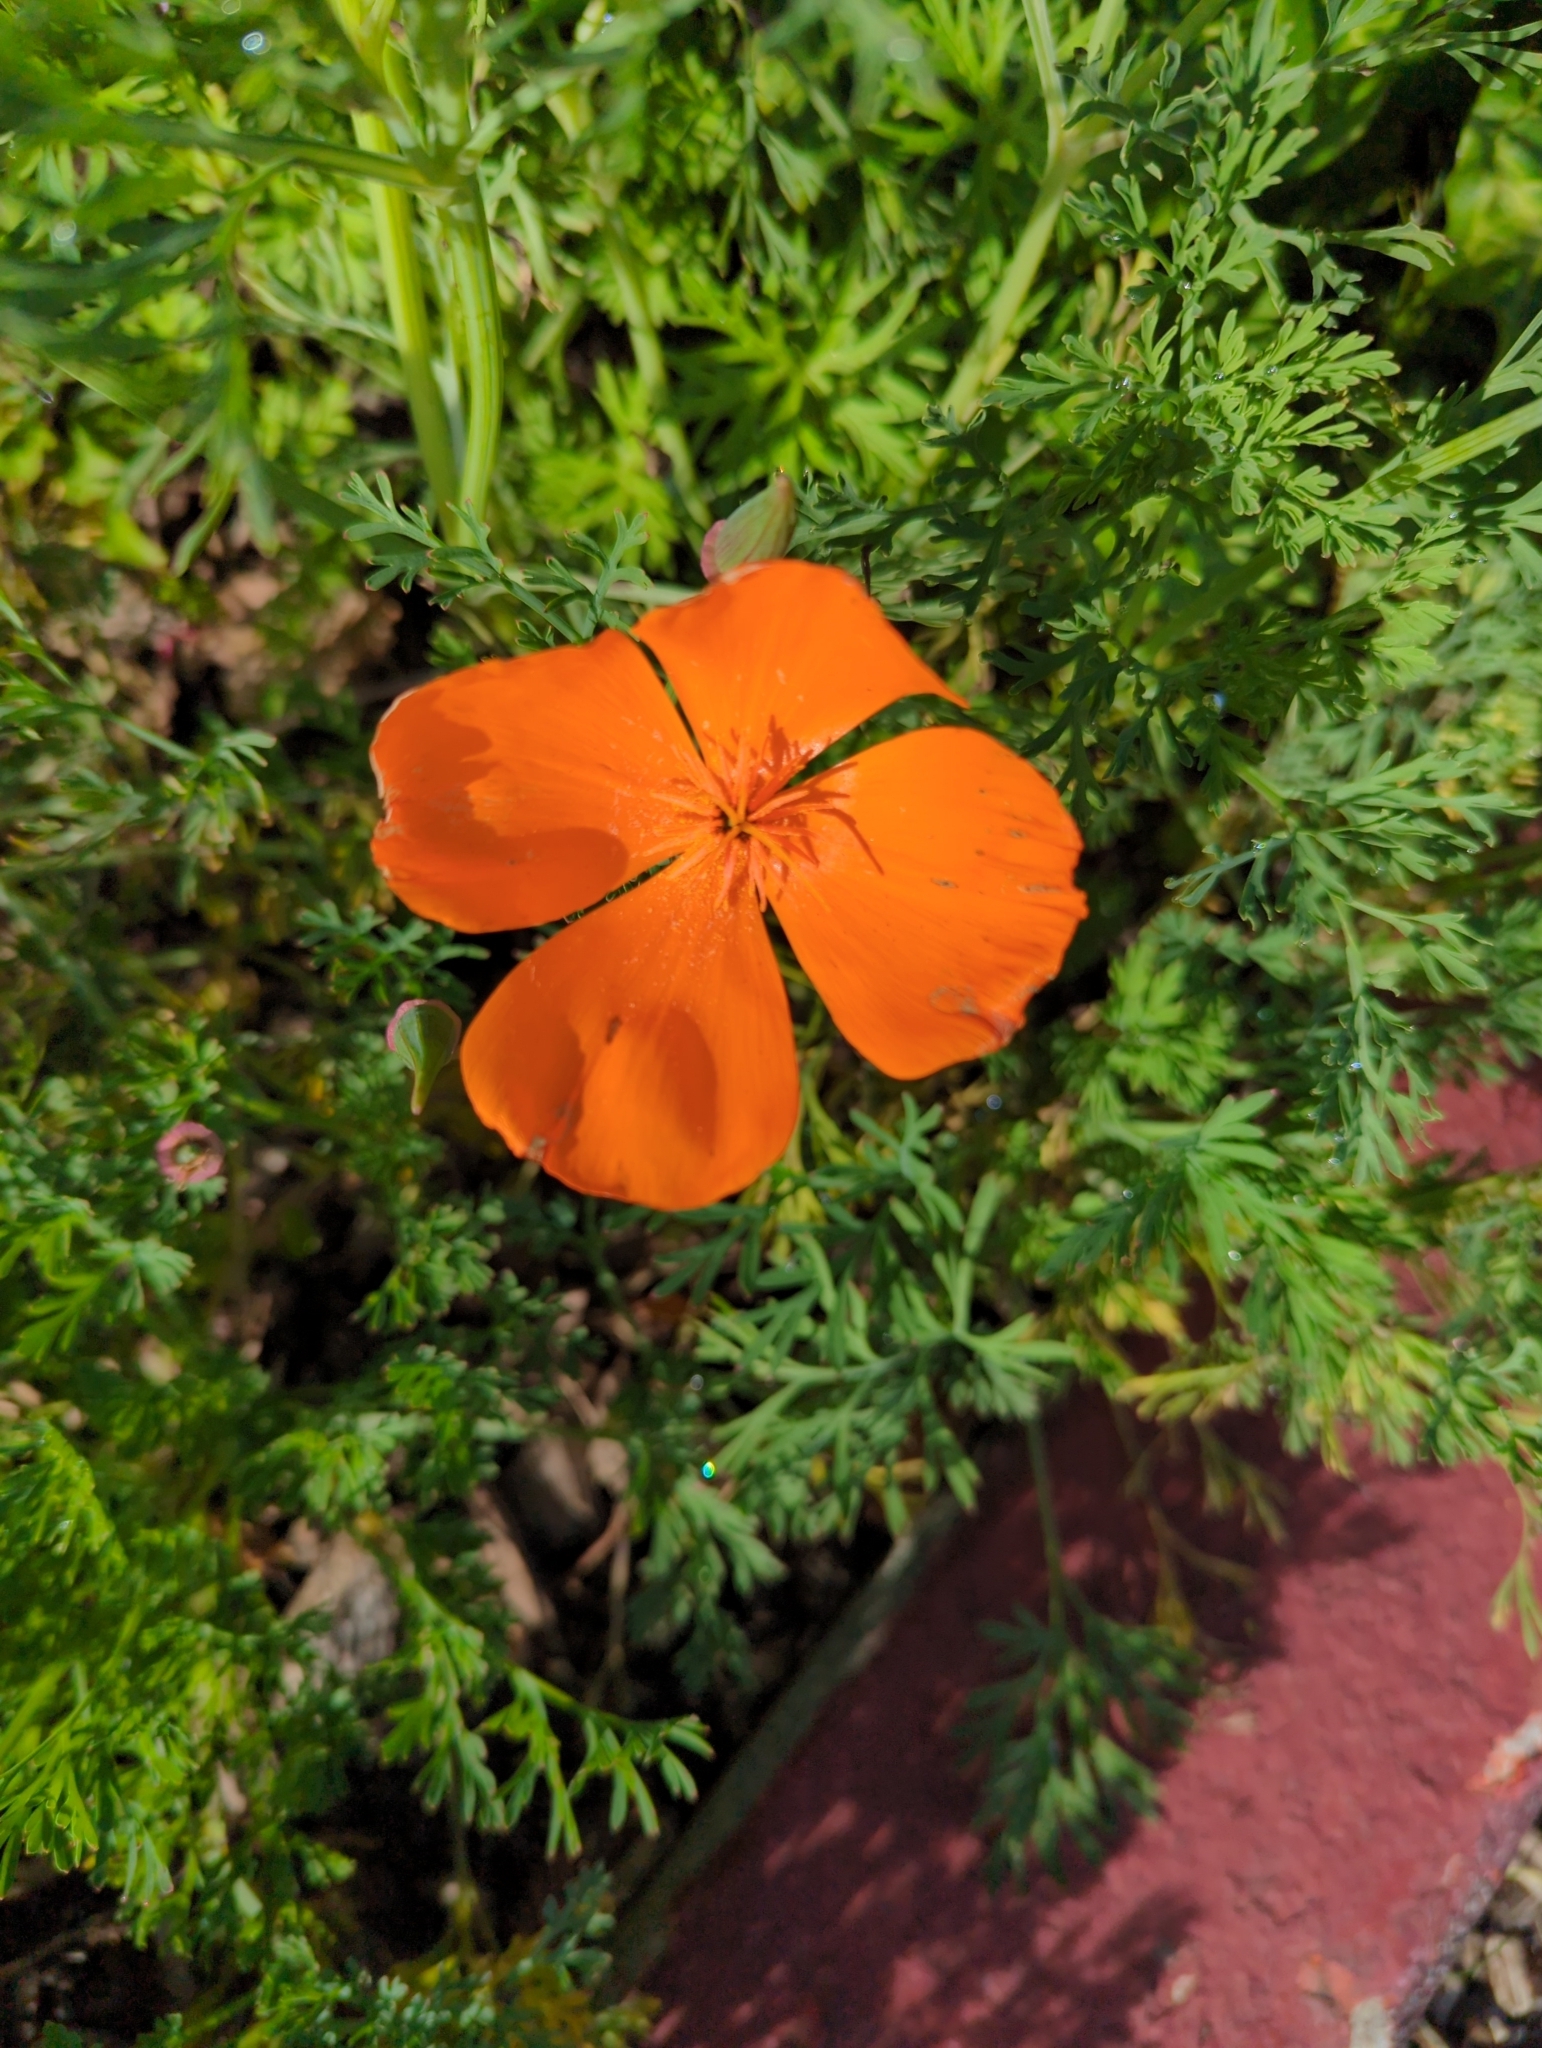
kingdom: Plantae
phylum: Tracheophyta
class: Magnoliopsida
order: Ranunculales
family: Papaveraceae
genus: Eschscholzia
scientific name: Eschscholzia californica
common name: California poppy
